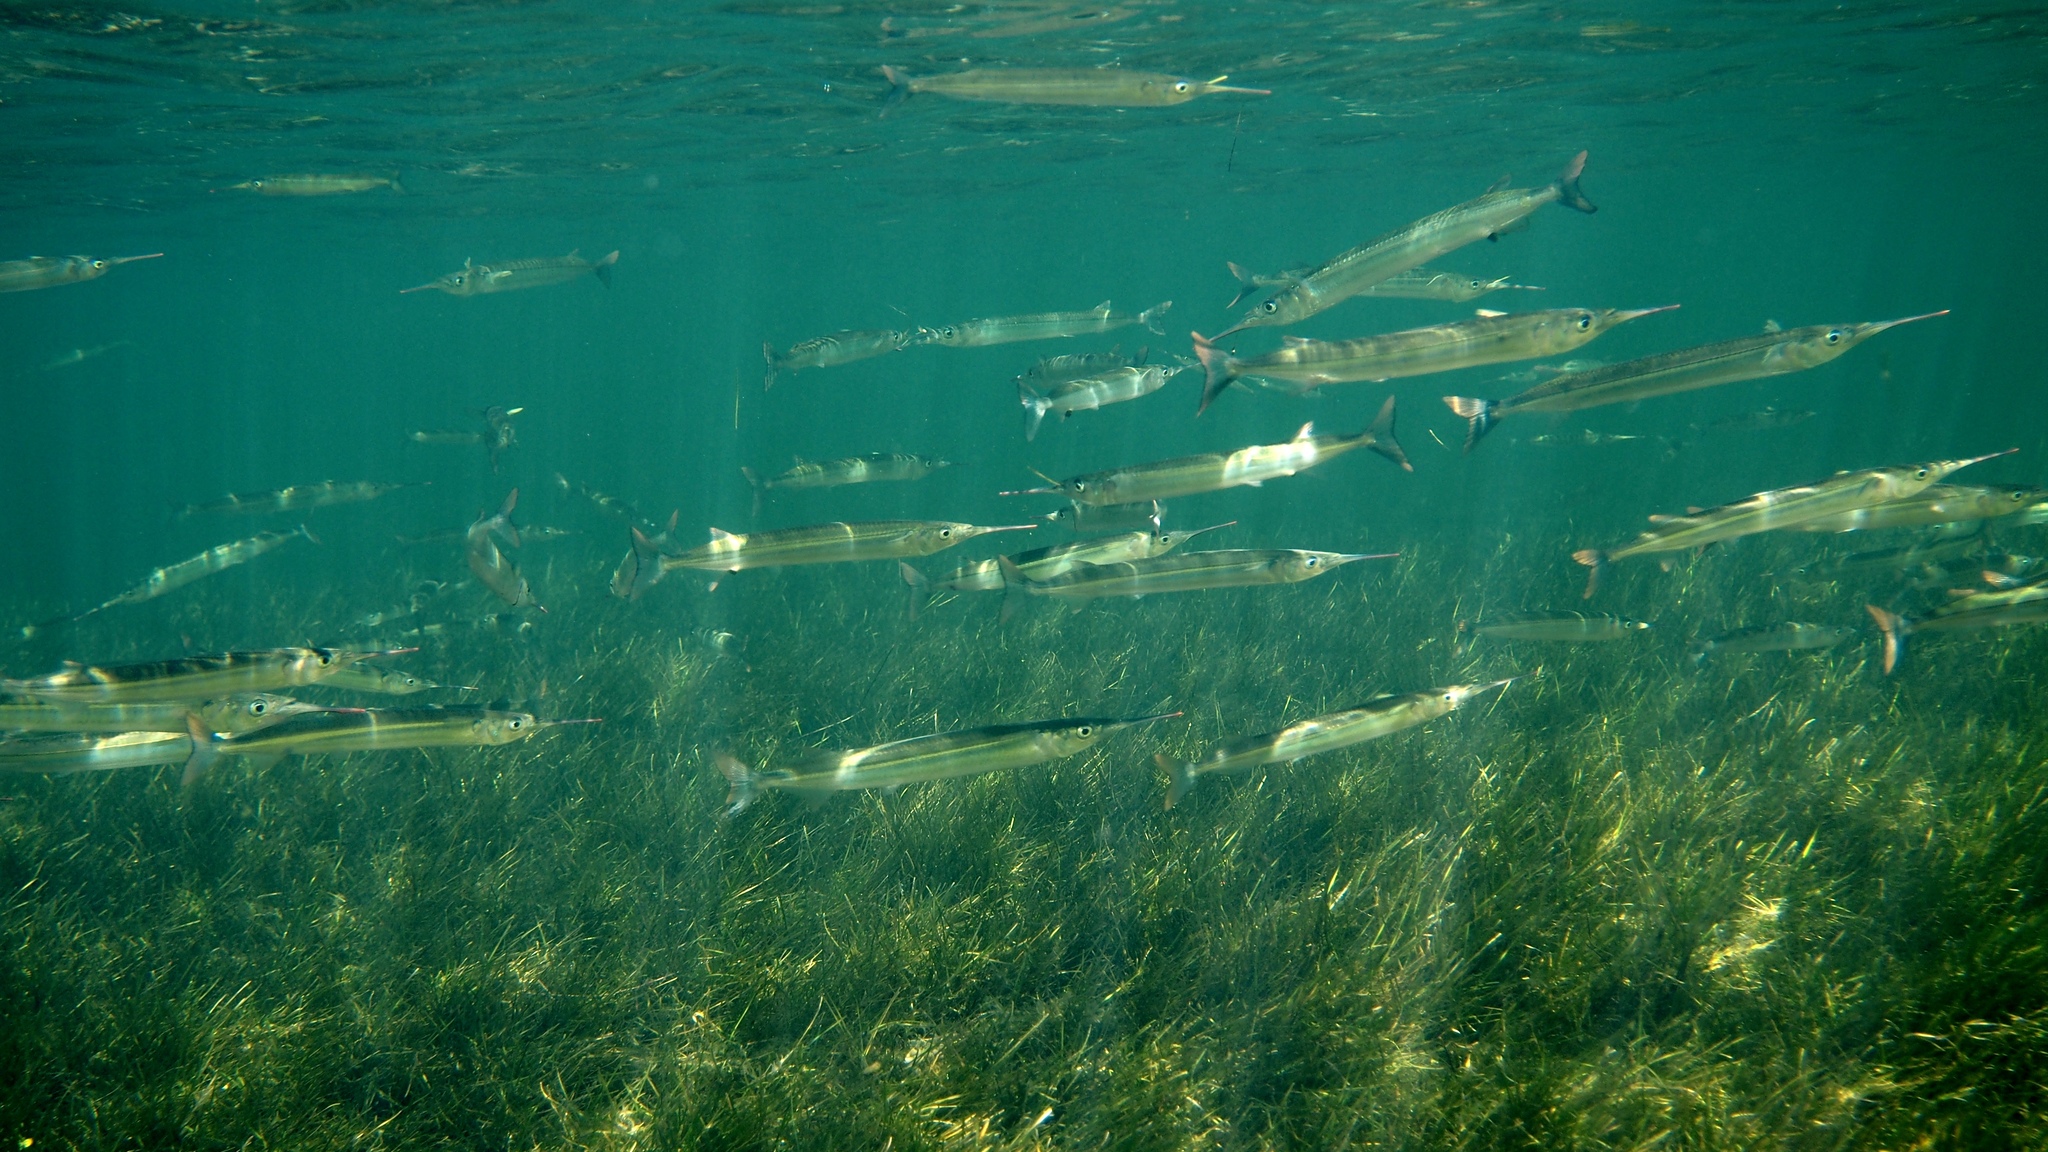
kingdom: Animalia
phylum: Chordata
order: Beloniformes
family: Hemiramphidae
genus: Hyporhamphus
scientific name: Hyporhamphus melanochir
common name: Southern garfish
